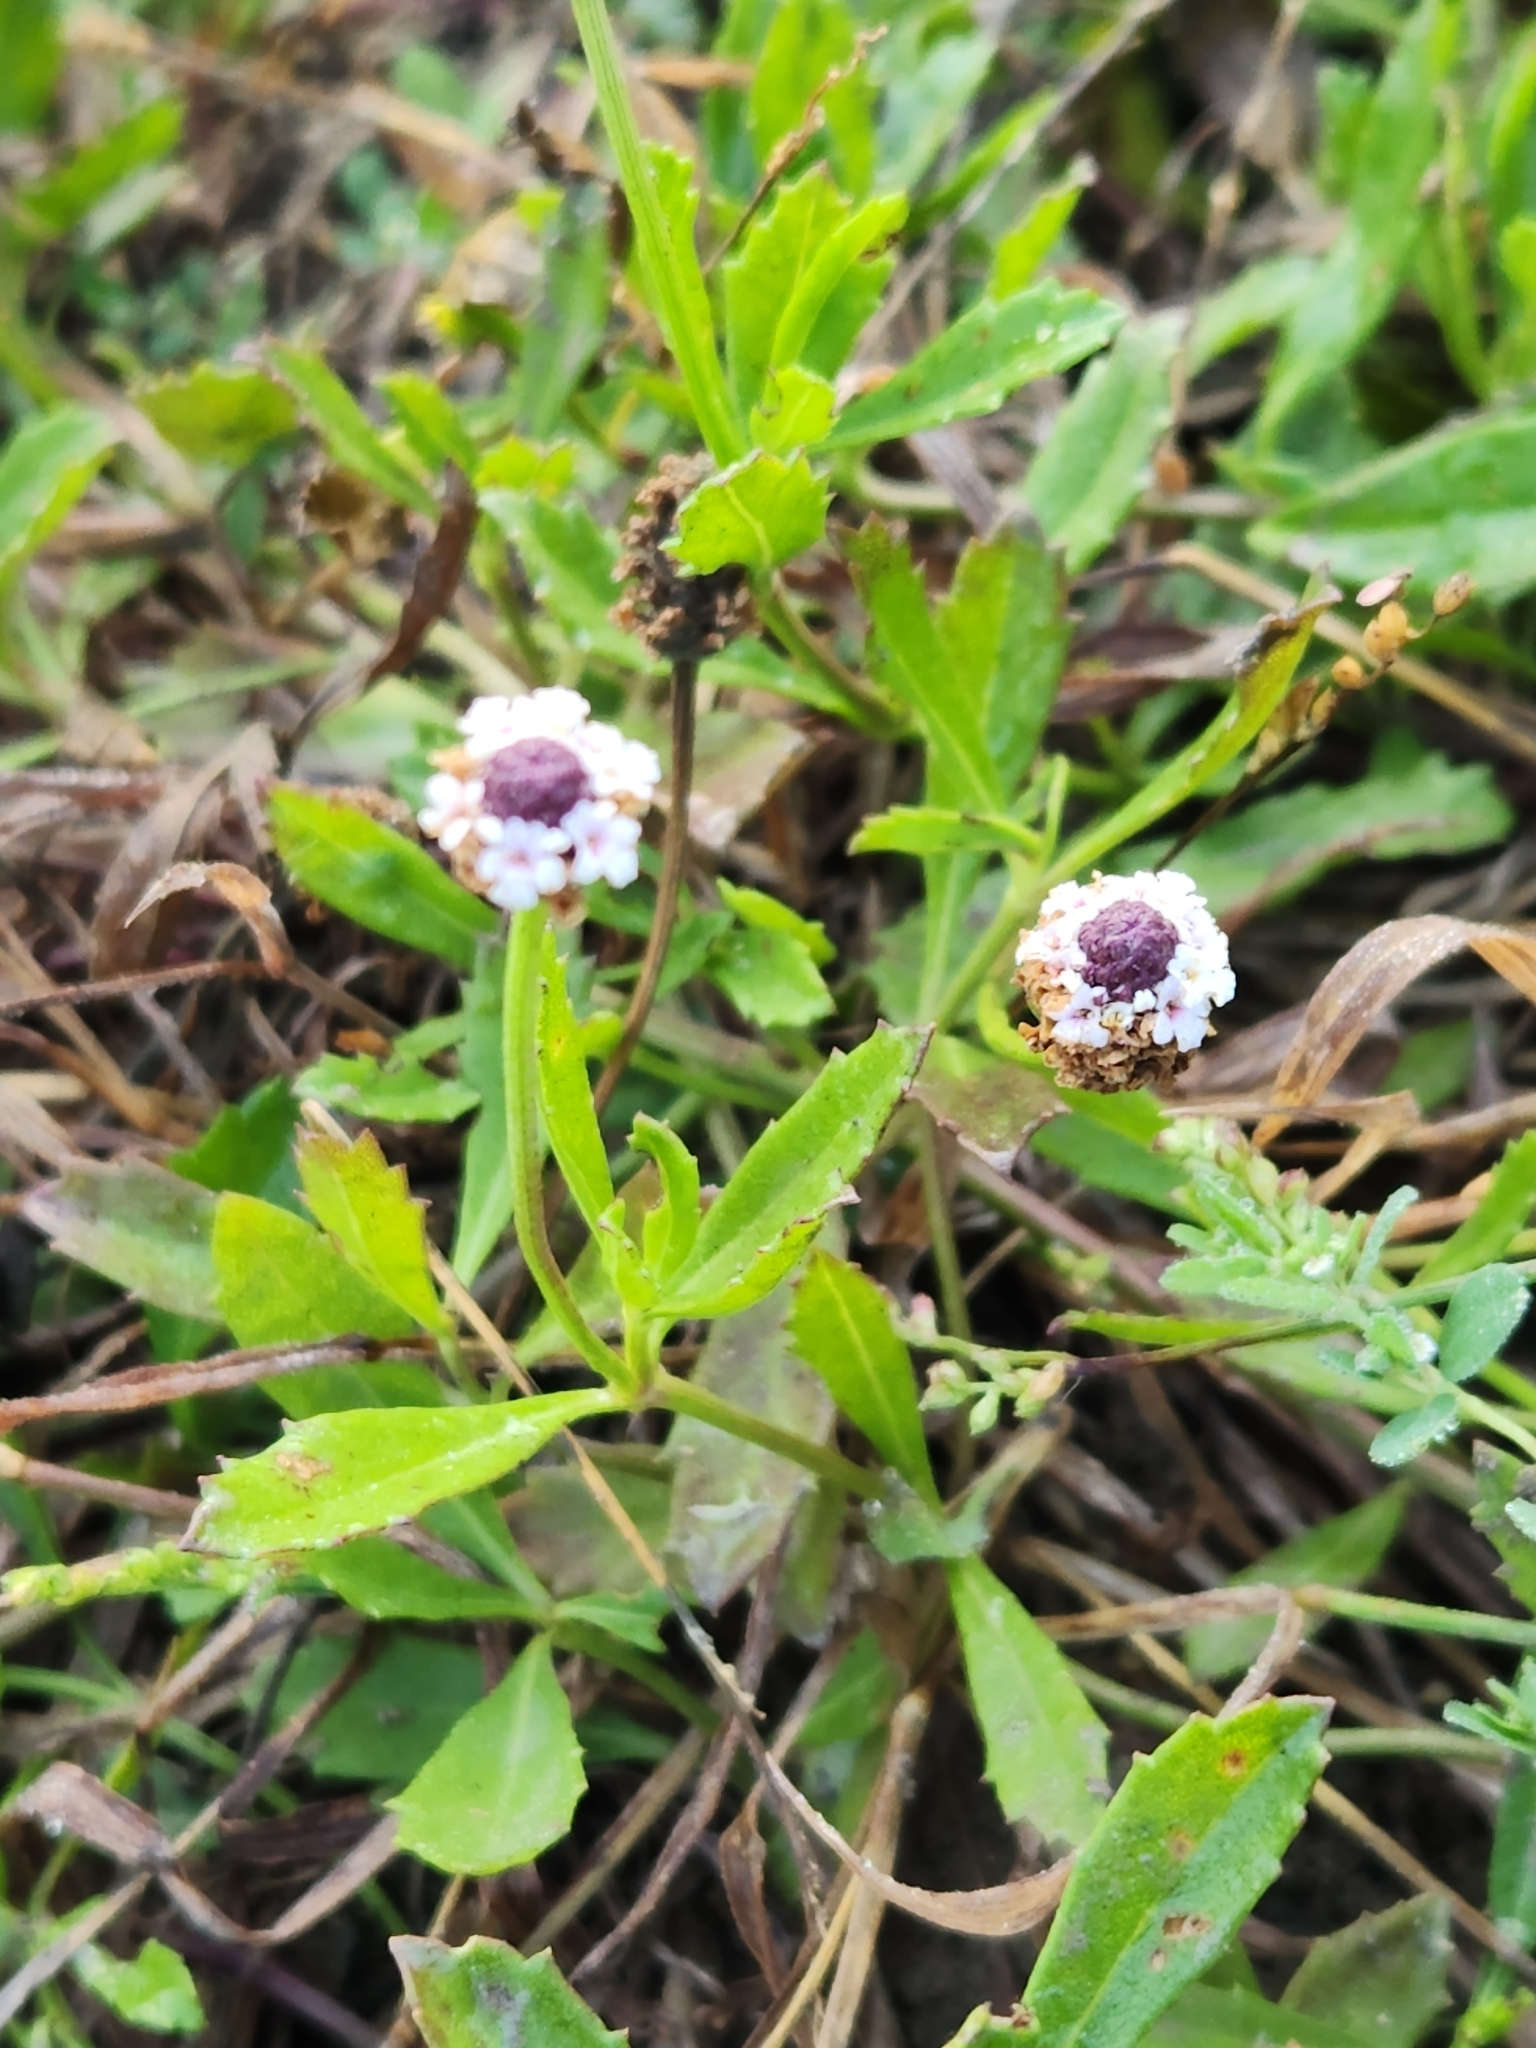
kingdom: Plantae
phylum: Tracheophyta
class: Magnoliopsida
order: Lamiales
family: Verbenaceae
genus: Phyla
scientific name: Phyla nodiflora
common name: Frogfruit
